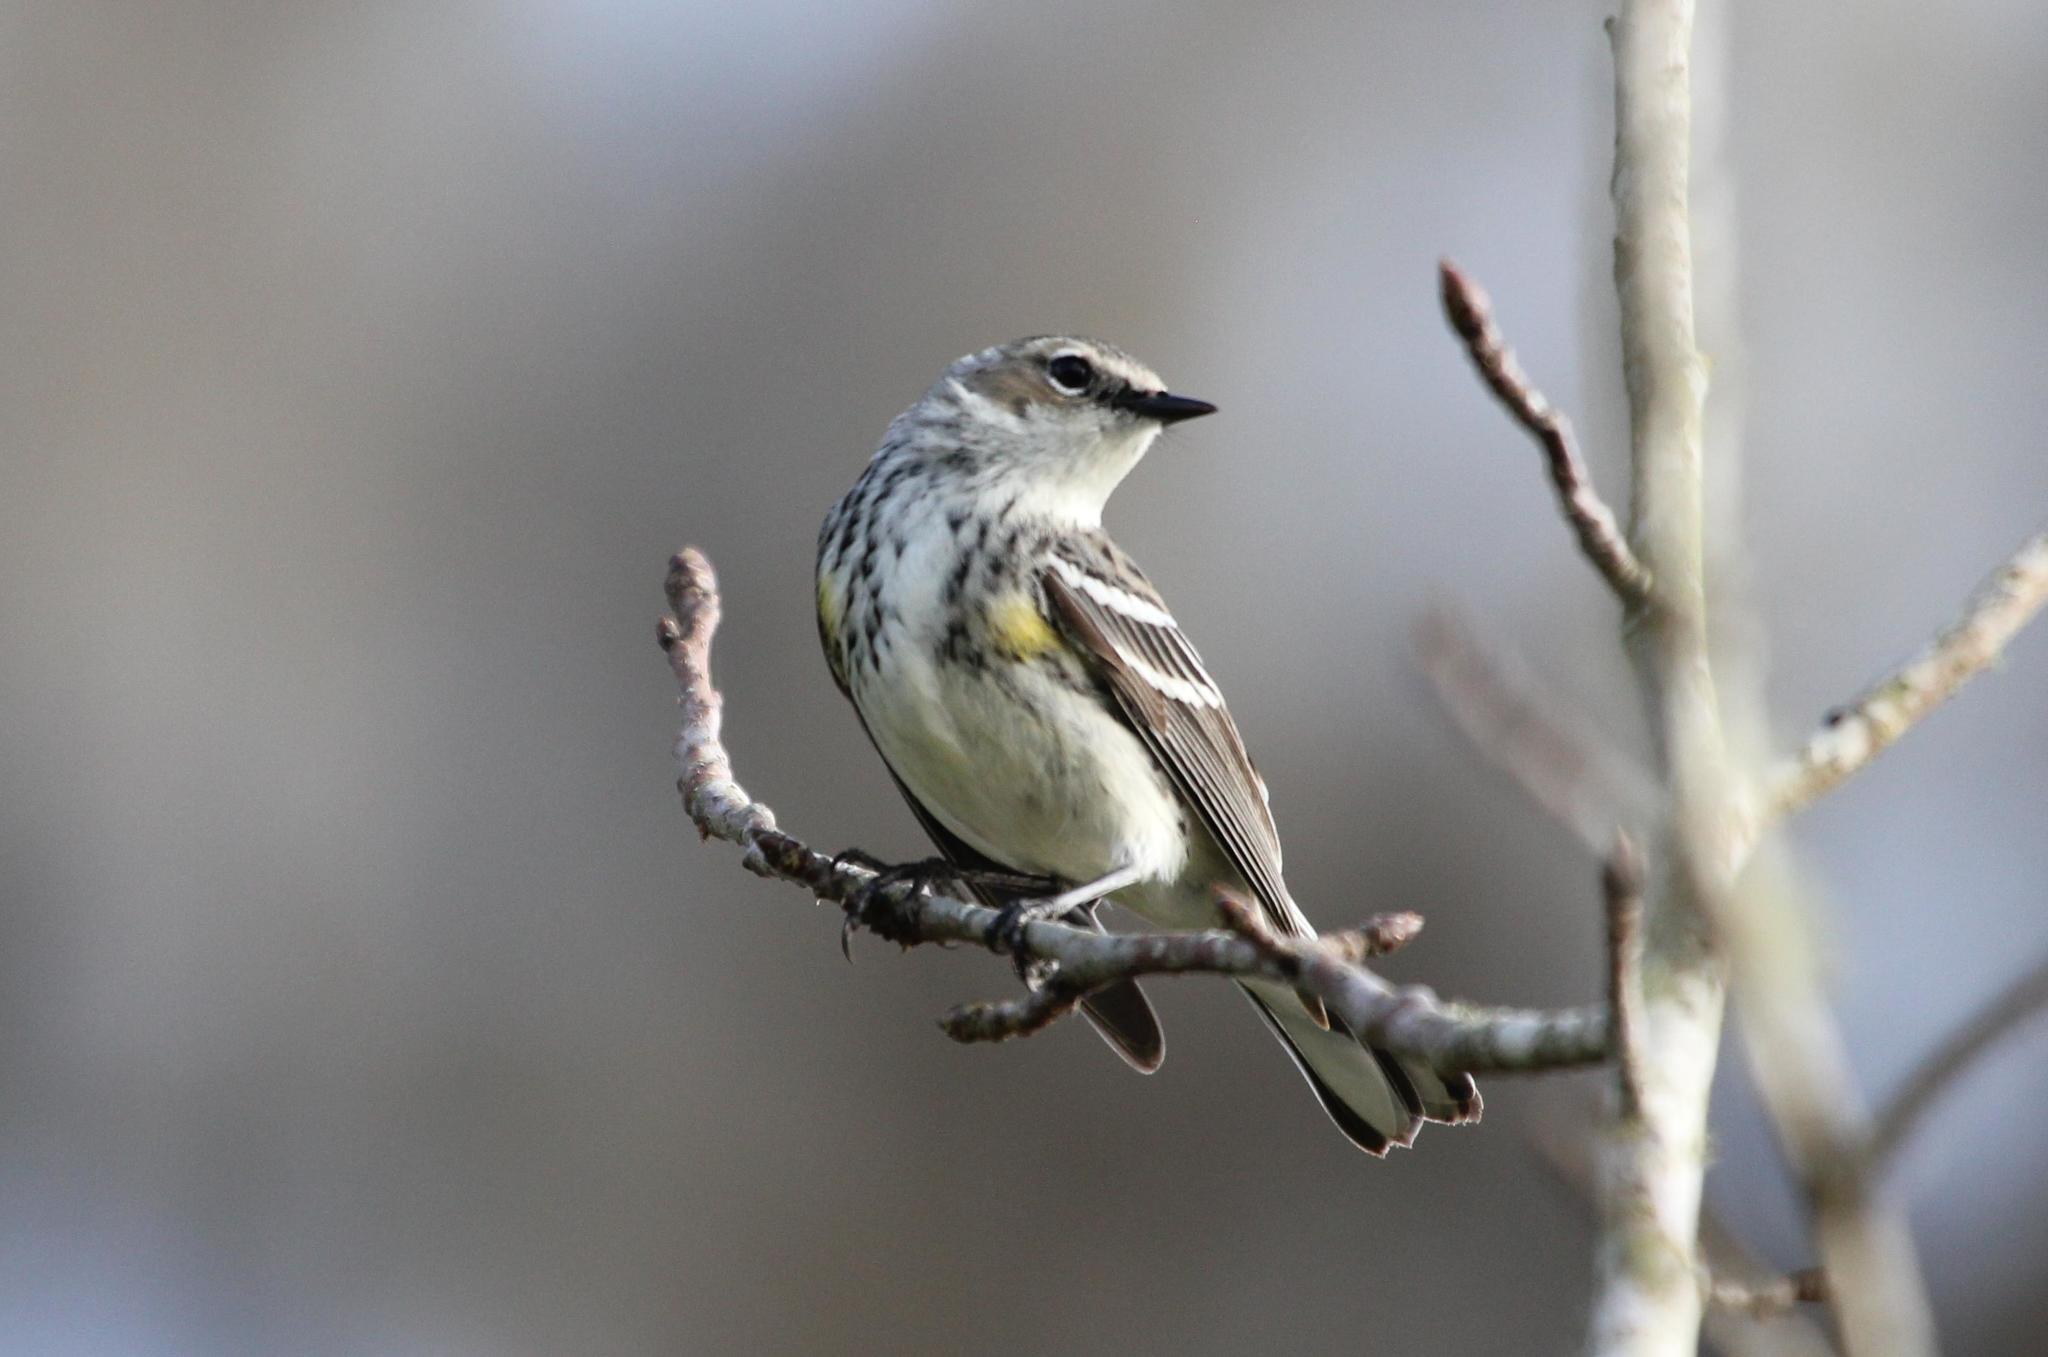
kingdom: Animalia
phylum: Chordata
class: Aves
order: Passeriformes
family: Parulidae
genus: Setophaga
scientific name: Setophaga coronata
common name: Myrtle warbler
